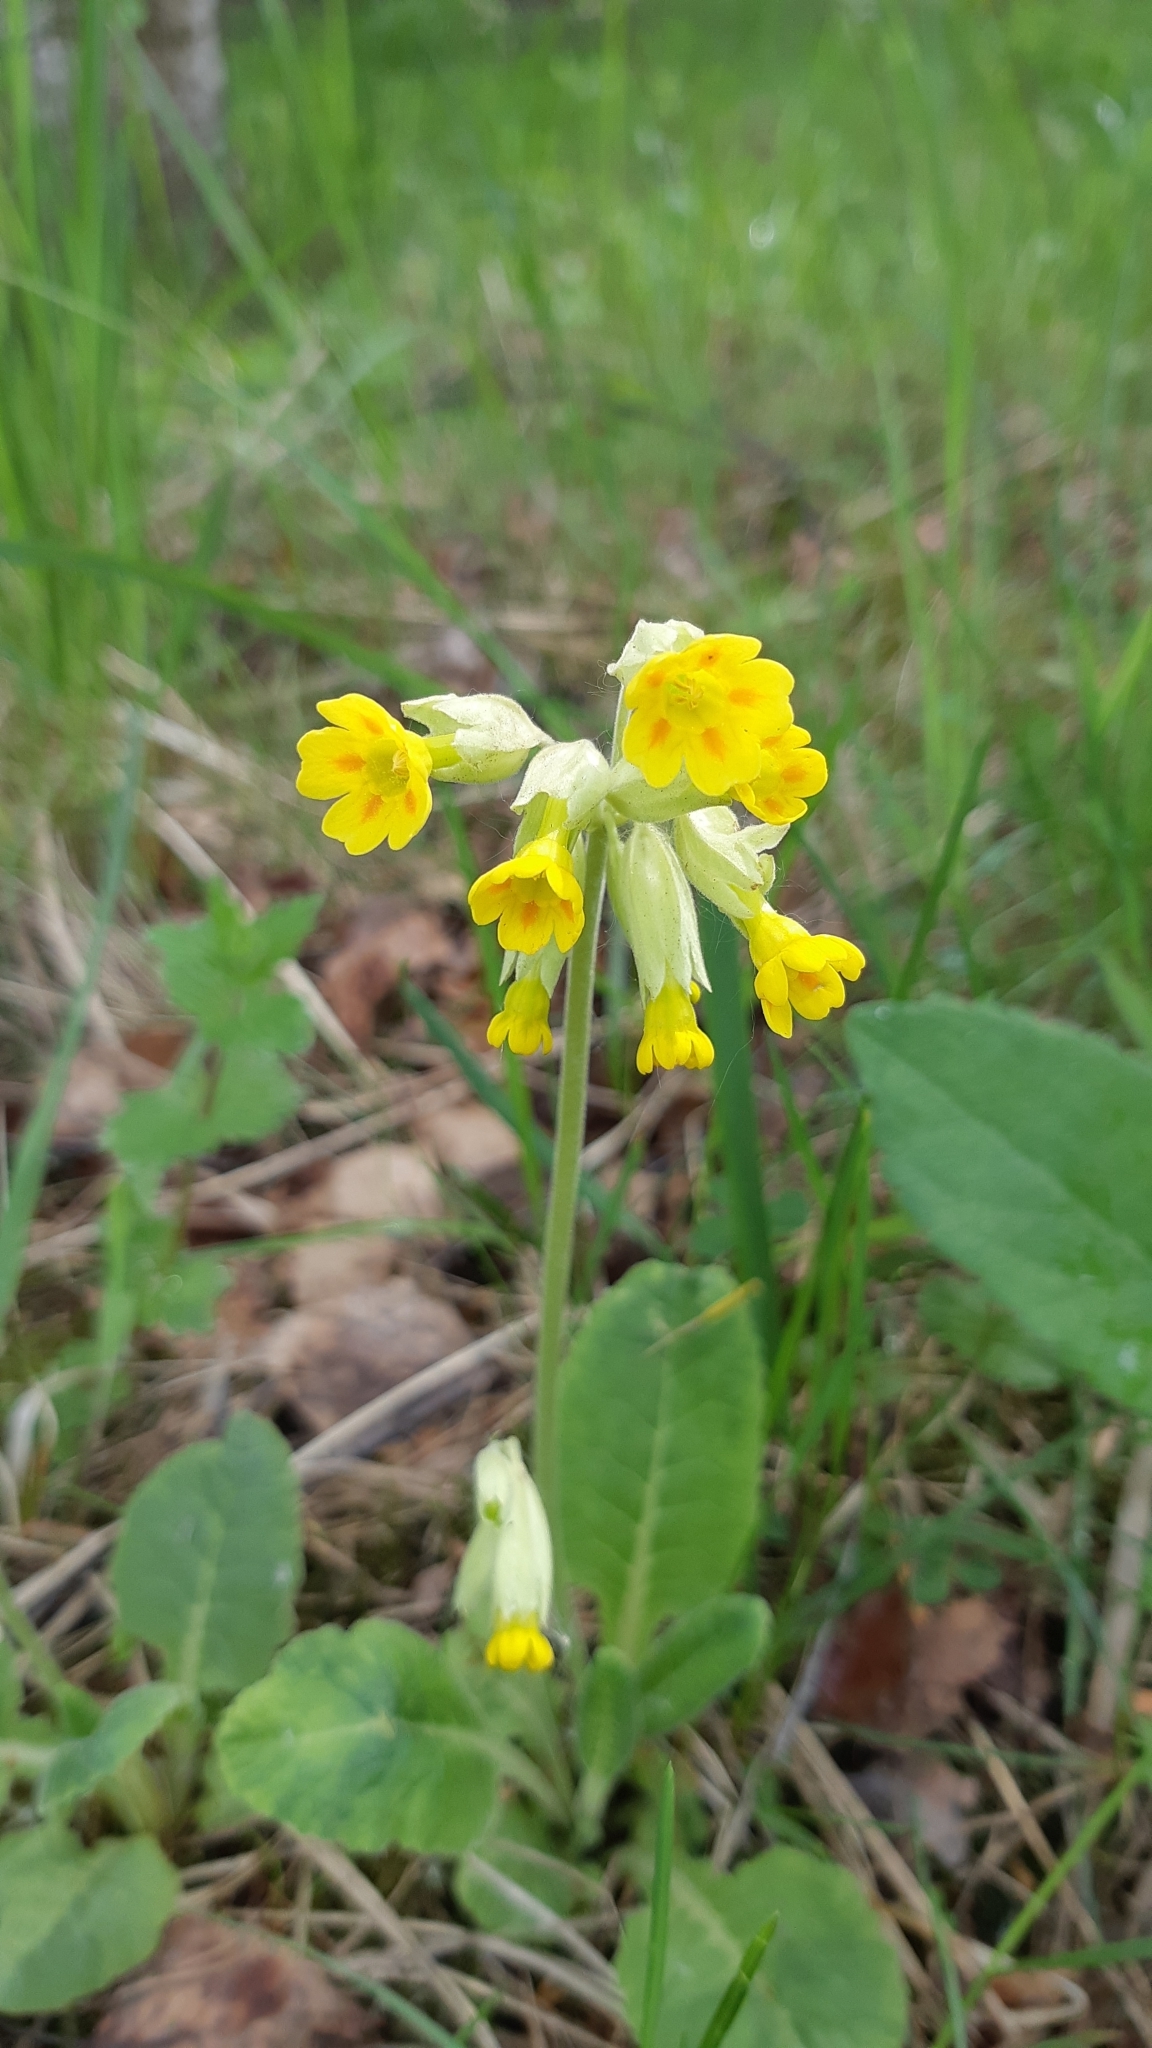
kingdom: Plantae
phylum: Tracheophyta
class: Magnoliopsida
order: Ericales
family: Primulaceae
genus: Primula
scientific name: Primula veris
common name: Cowslip
